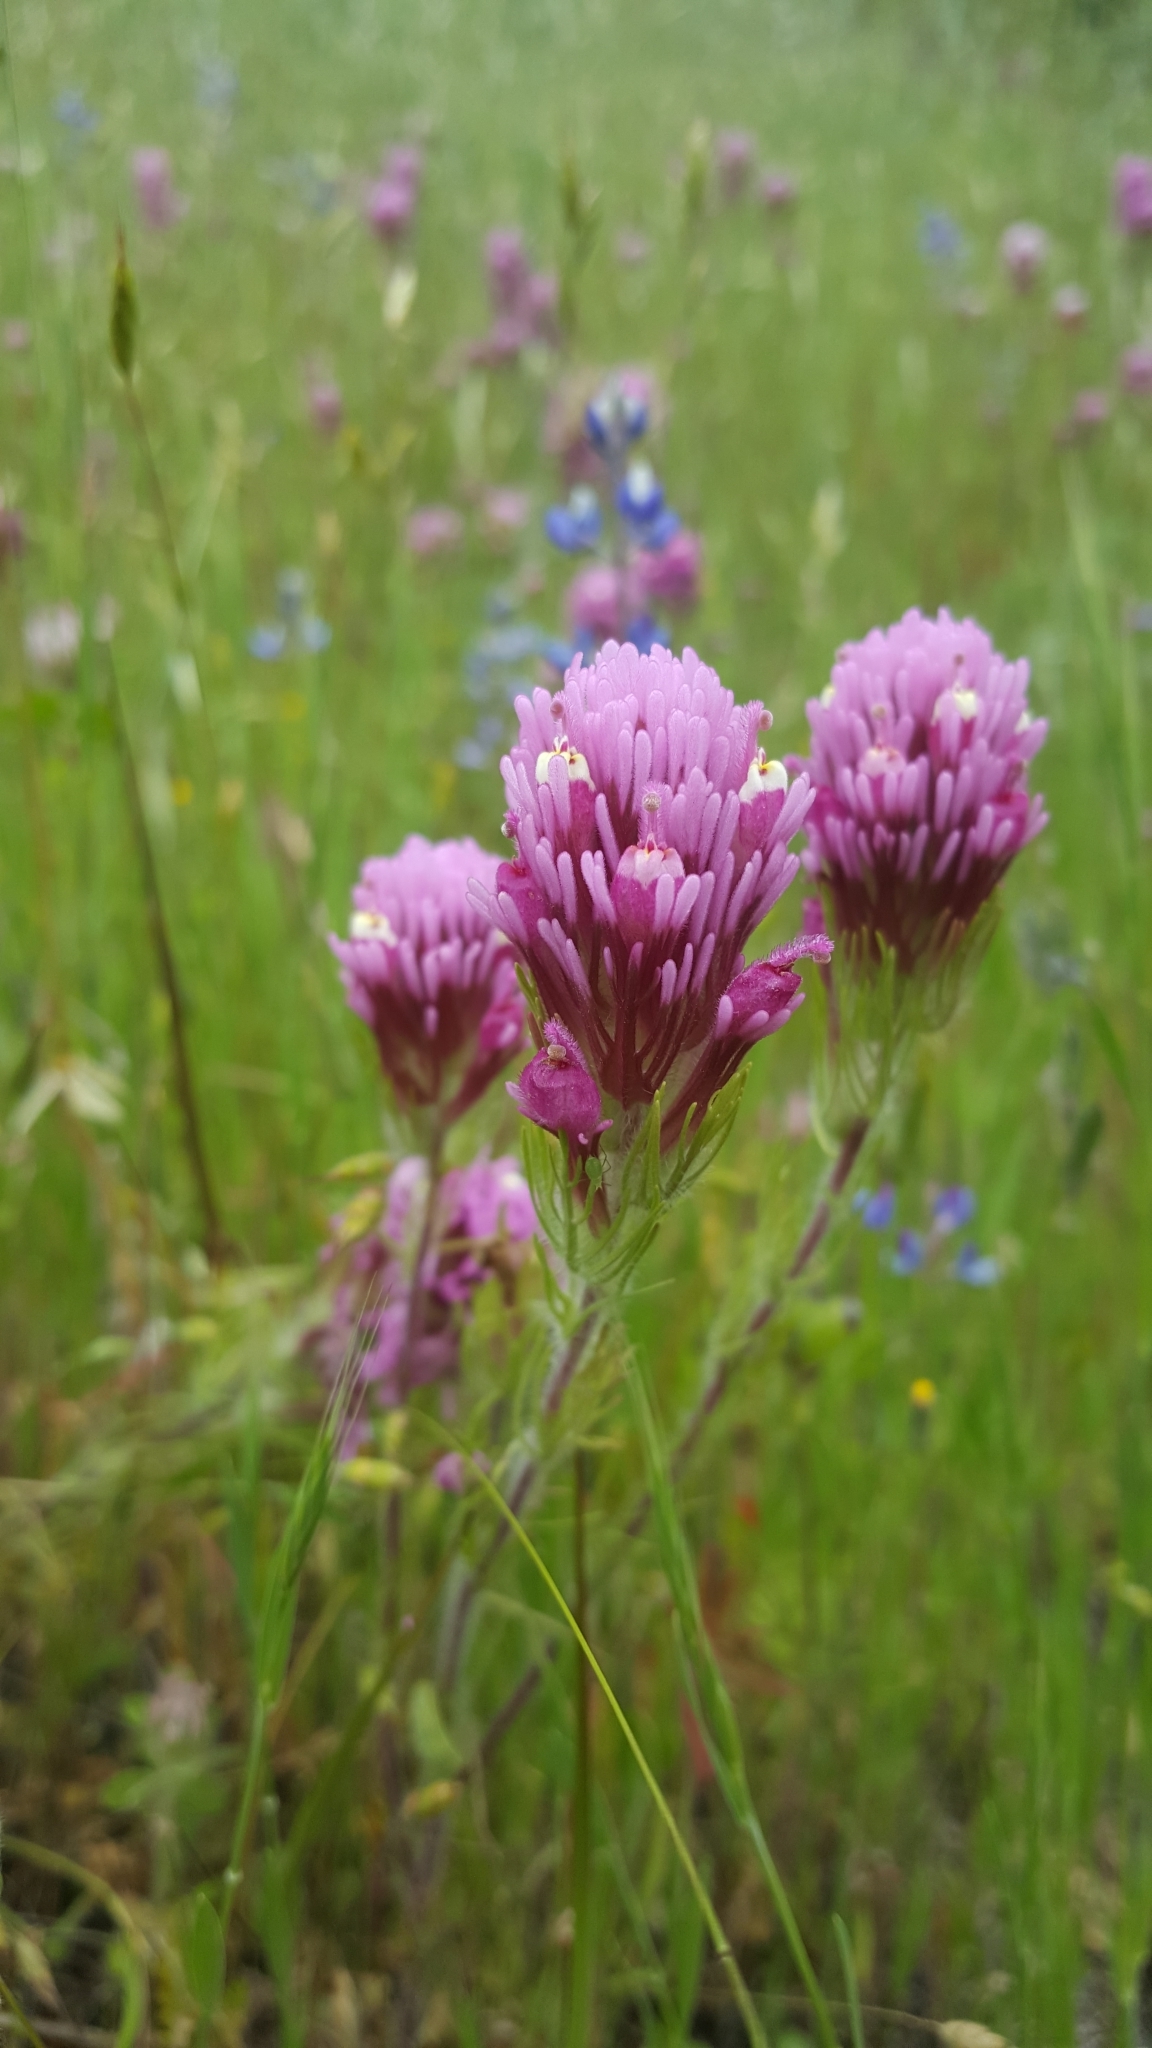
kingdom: Plantae
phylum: Tracheophyta
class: Magnoliopsida
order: Lamiales
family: Orobanchaceae
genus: Castilleja
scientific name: Castilleja exserta
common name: Purple owl-clover
